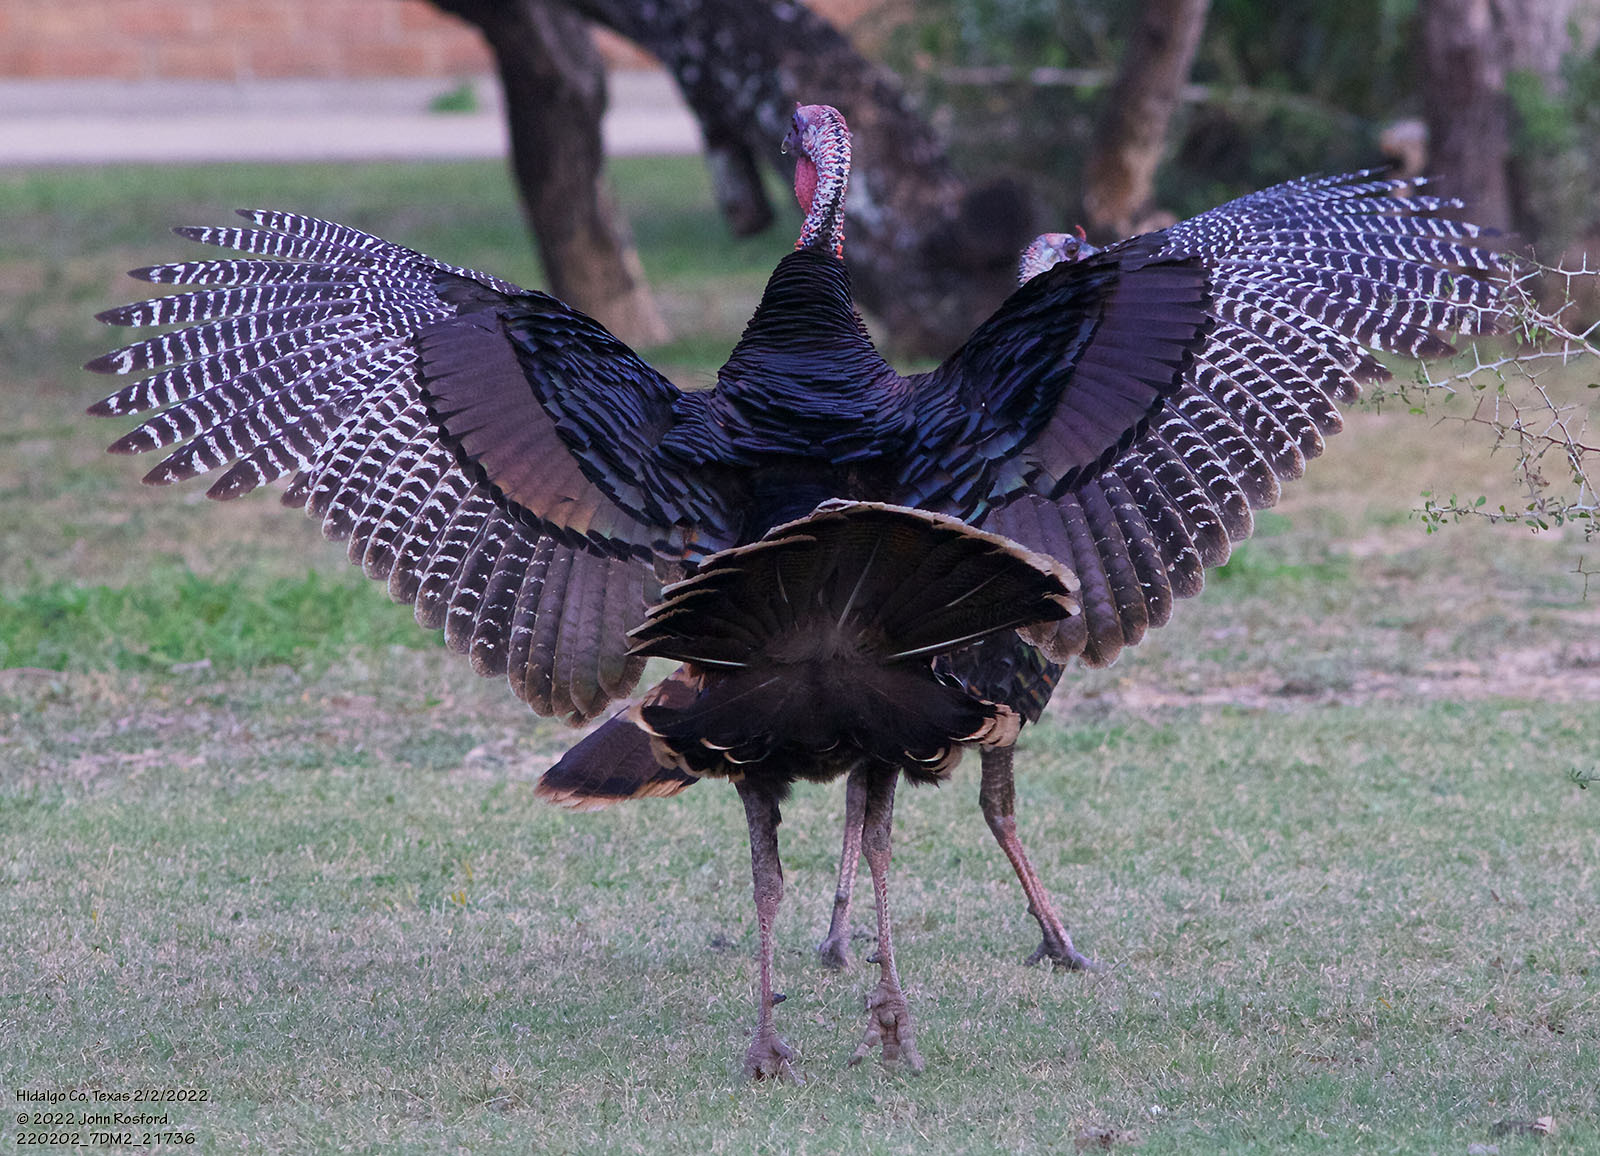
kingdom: Animalia
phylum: Chordata
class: Aves
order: Galliformes
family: Phasianidae
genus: Meleagris
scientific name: Meleagris gallopavo
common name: Wild turkey
